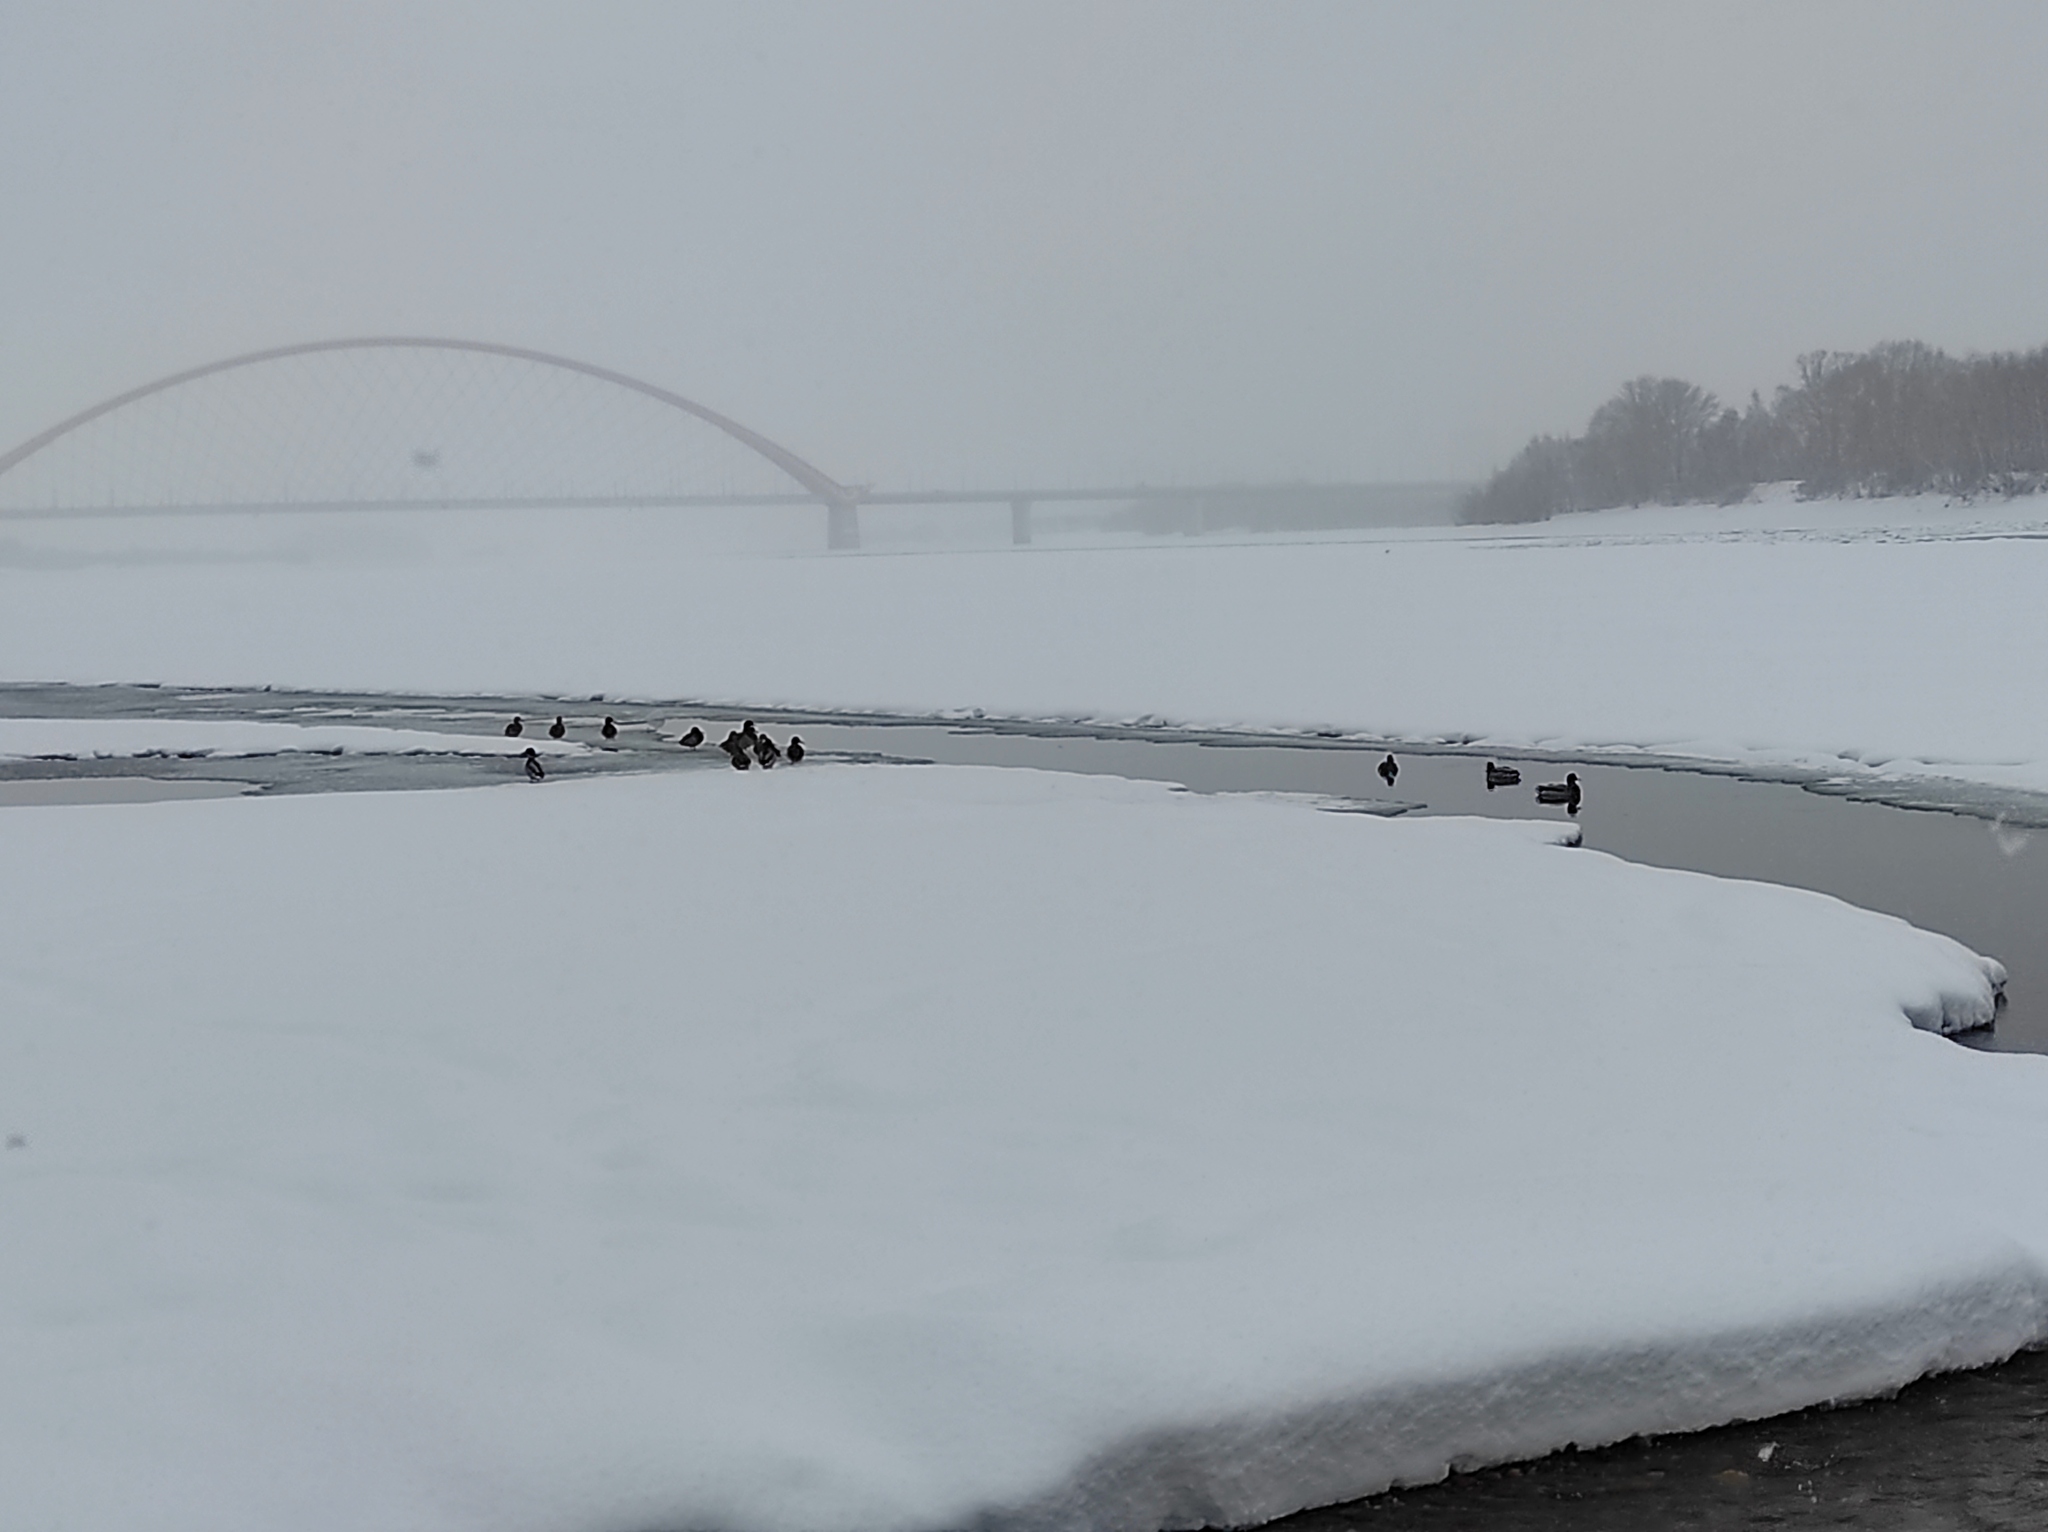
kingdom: Animalia
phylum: Chordata
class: Aves
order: Anseriformes
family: Anatidae
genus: Anas
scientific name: Anas platyrhynchos
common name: Mallard
